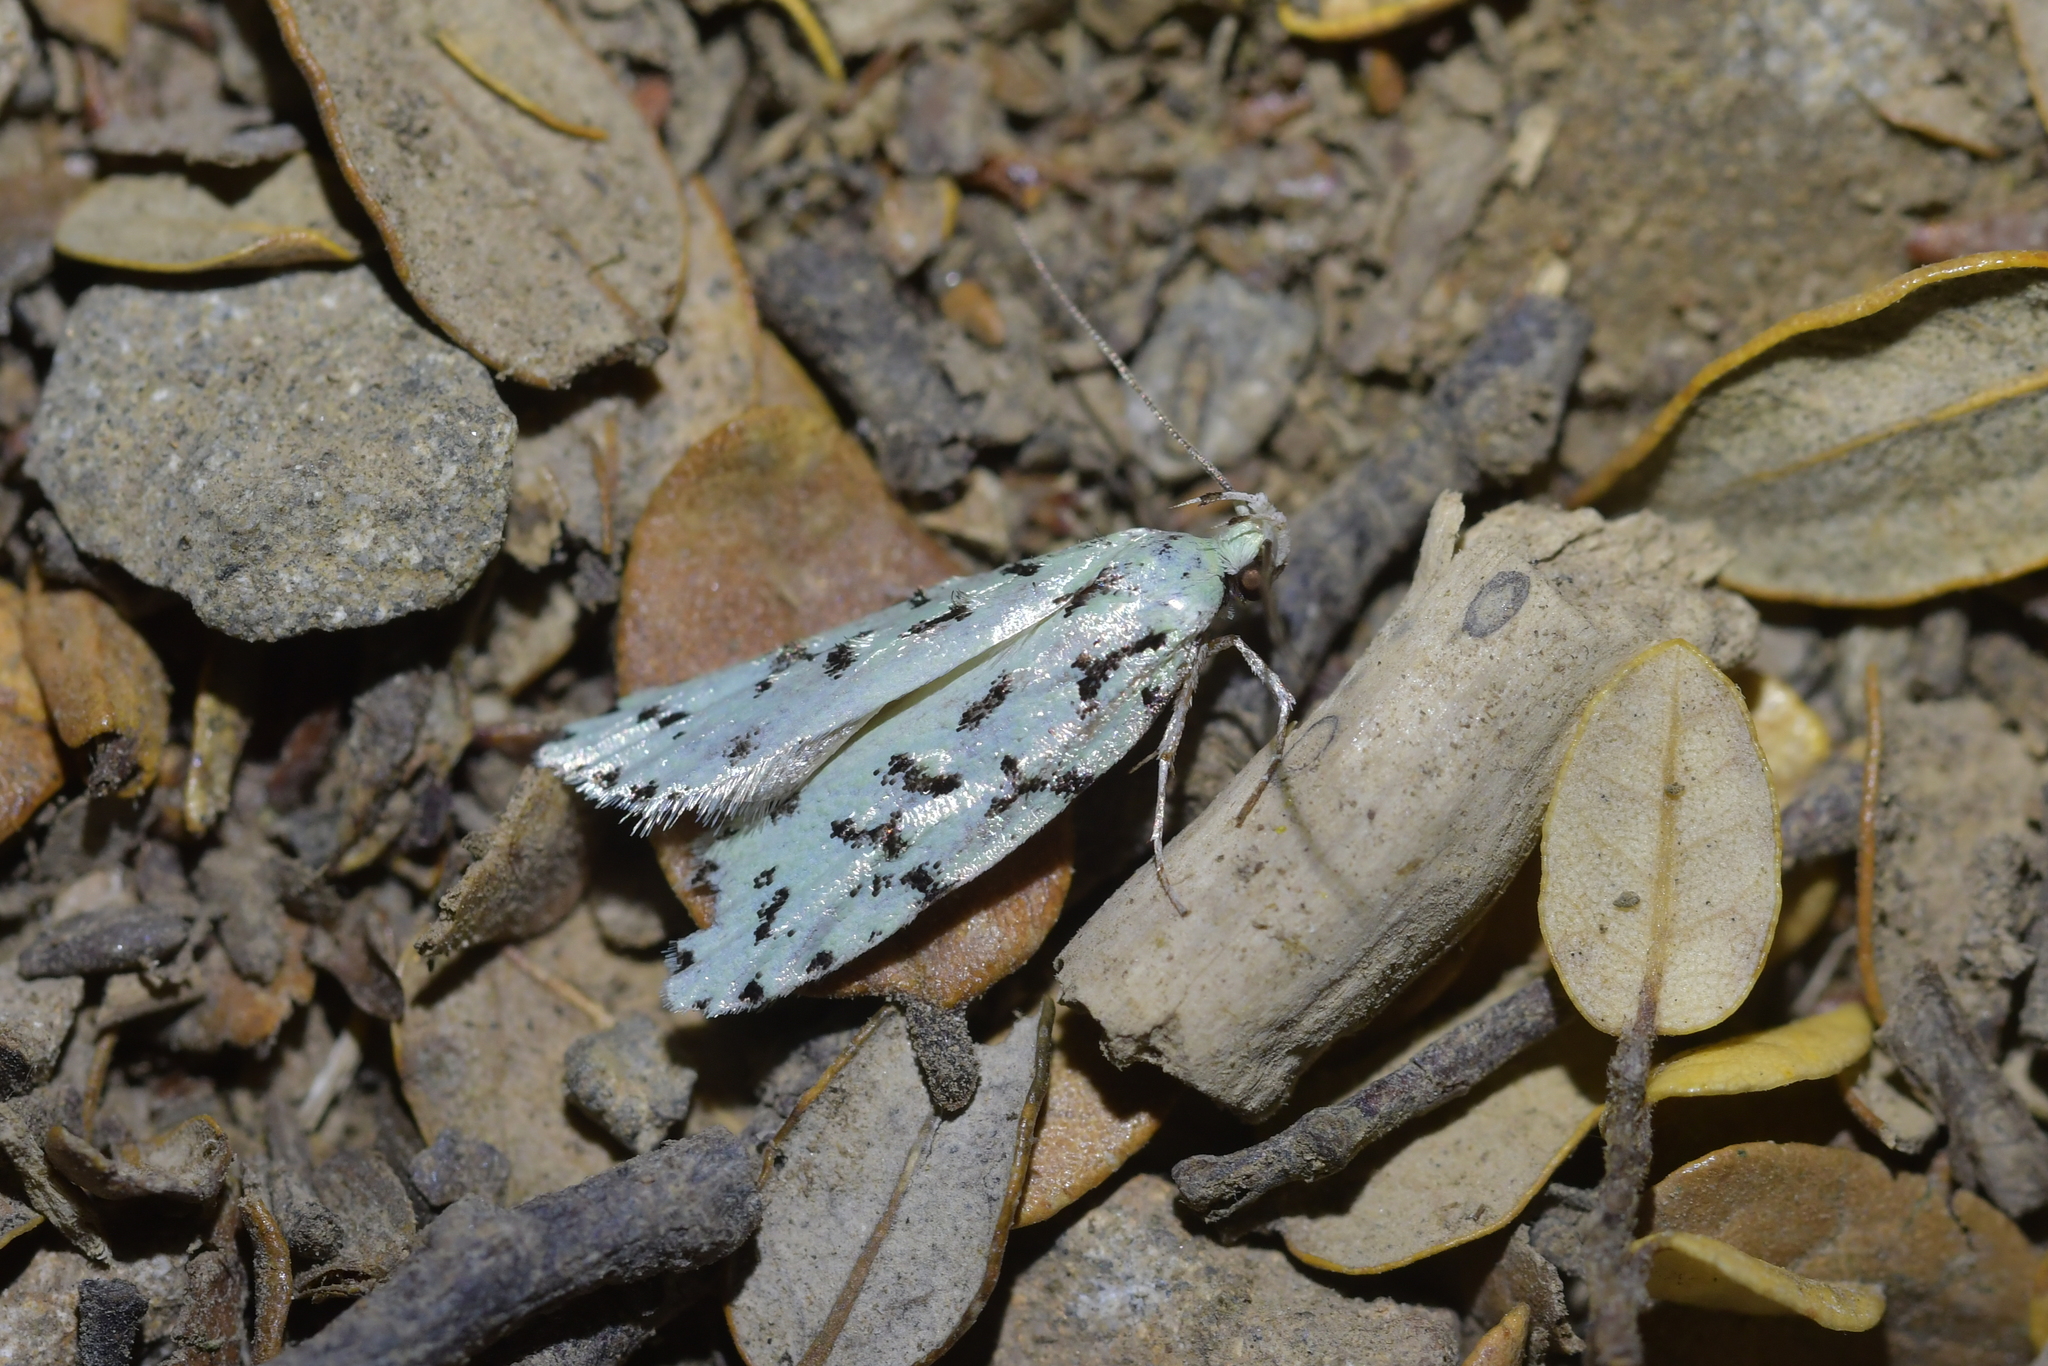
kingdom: Animalia
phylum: Arthropoda
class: Insecta
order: Lepidoptera
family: Oecophoridae
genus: Izatha
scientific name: Izatha huttoni
